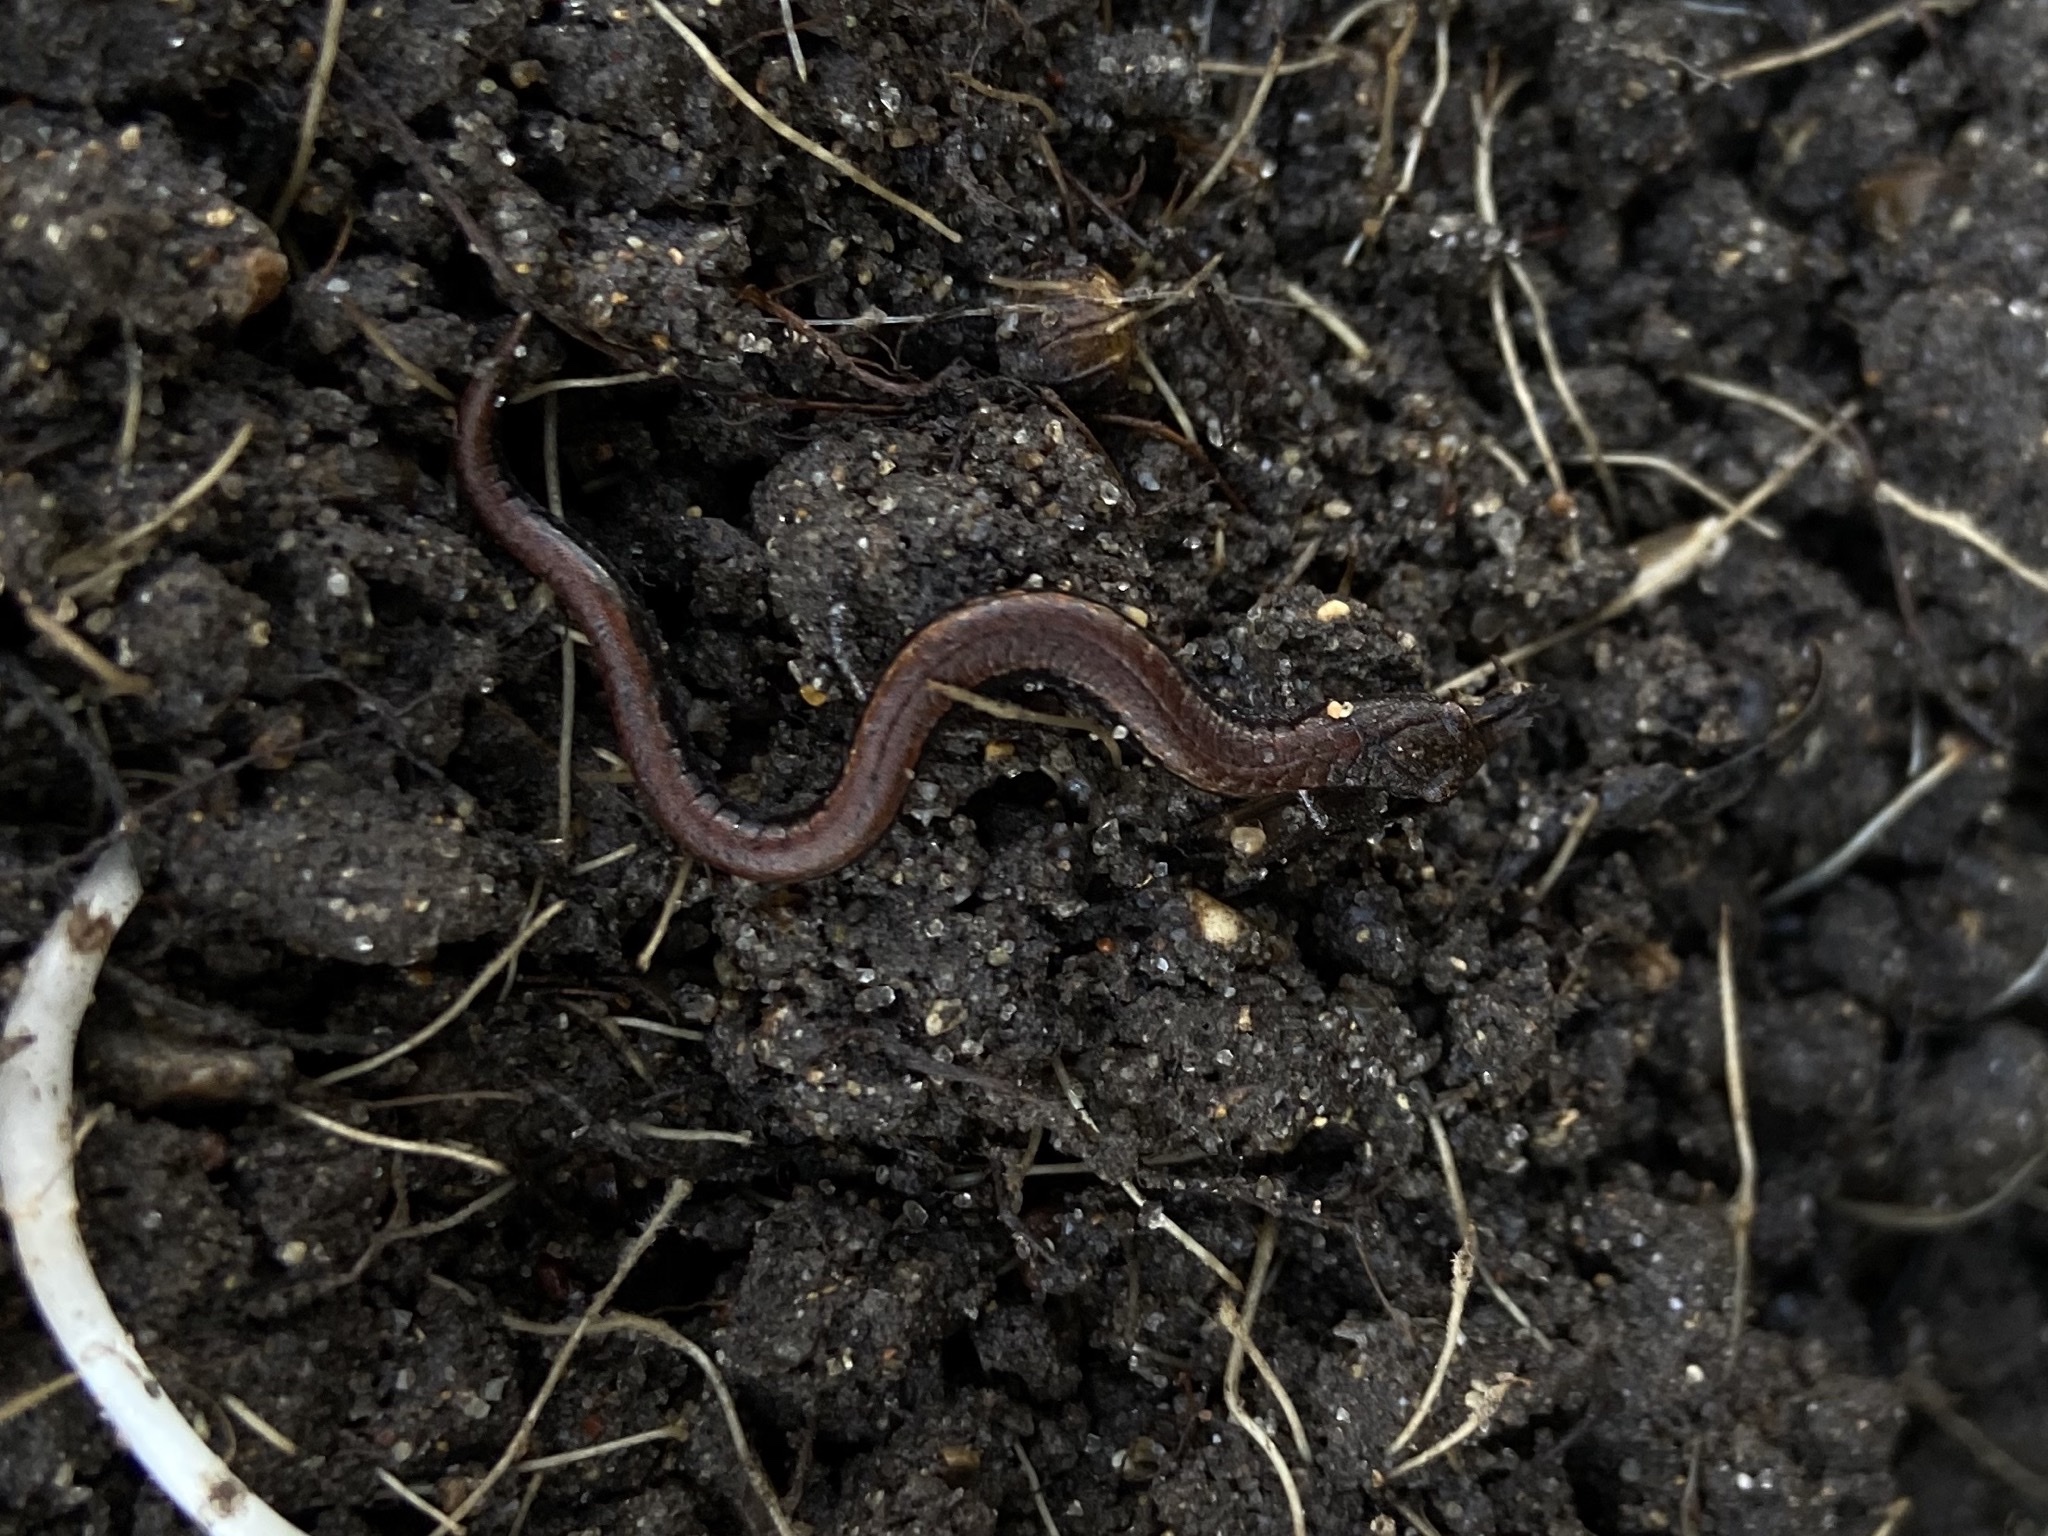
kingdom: Animalia
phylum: Chordata
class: Amphibia
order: Caudata
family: Plethodontidae
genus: Batrachoseps
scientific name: Batrachoseps attenuatus
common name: California slender salamander
